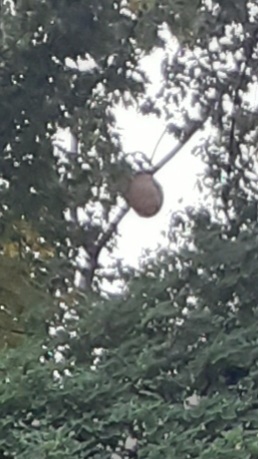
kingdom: Animalia
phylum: Arthropoda
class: Insecta
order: Hymenoptera
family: Vespidae
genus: Vespa
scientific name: Vespa velutina
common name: Asian hornet
